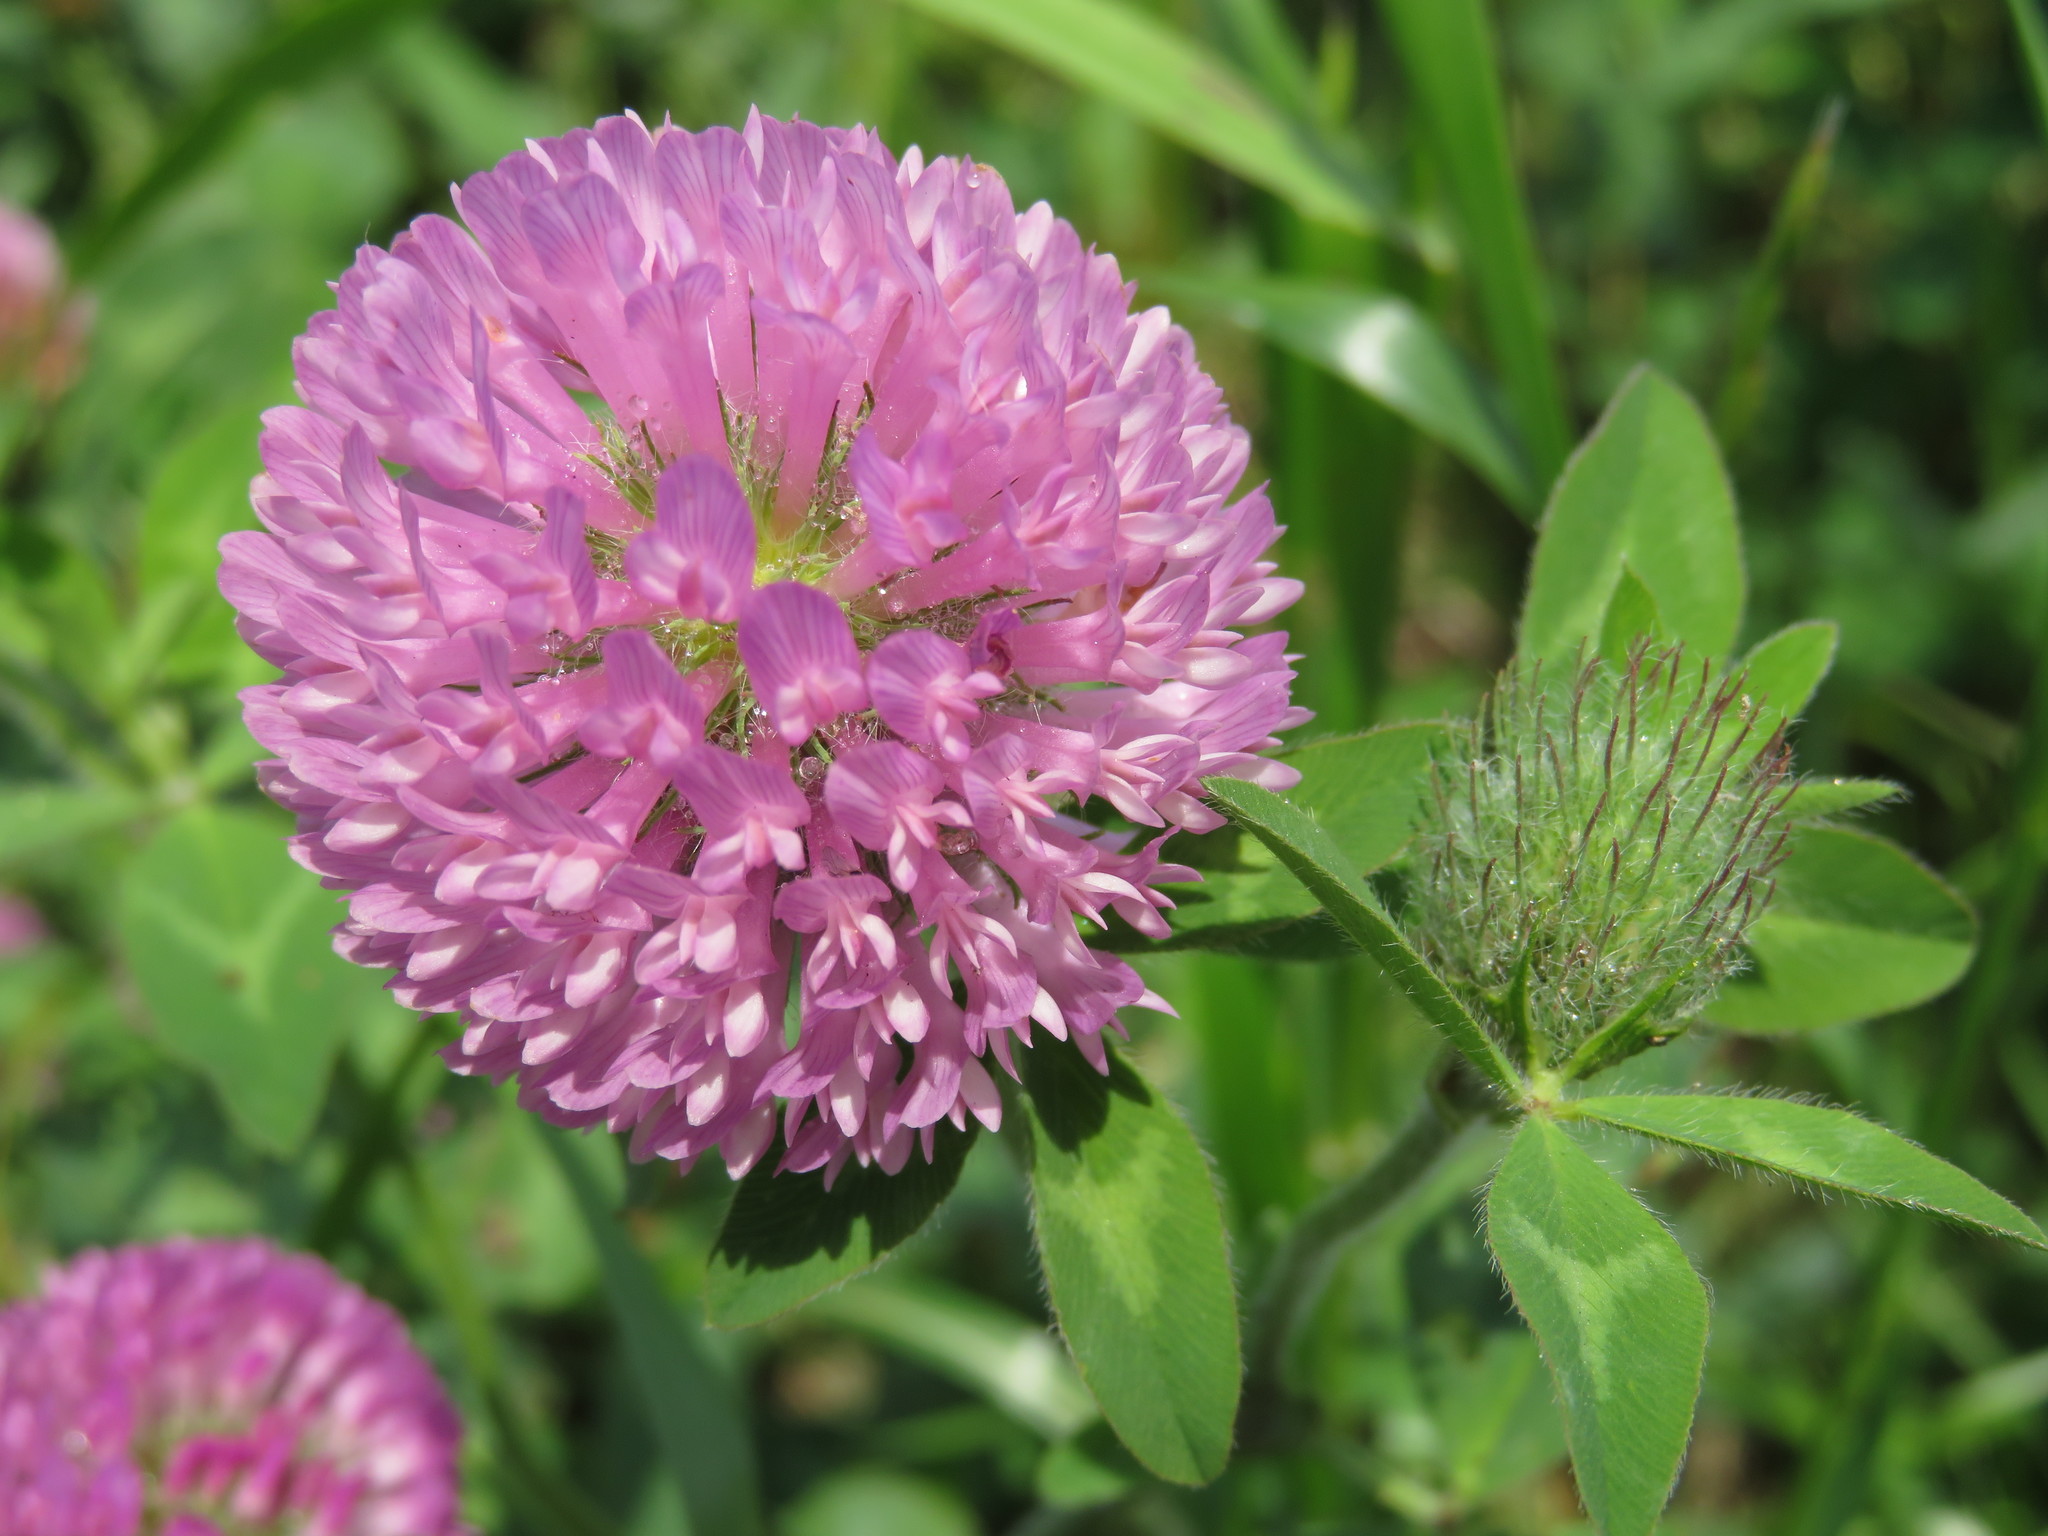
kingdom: Plantae
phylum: Tracheophyta
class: Magnoliopsida
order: Fabales
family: Fabaceae
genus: Trifolium
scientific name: Trifolium pratense
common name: Red clover
